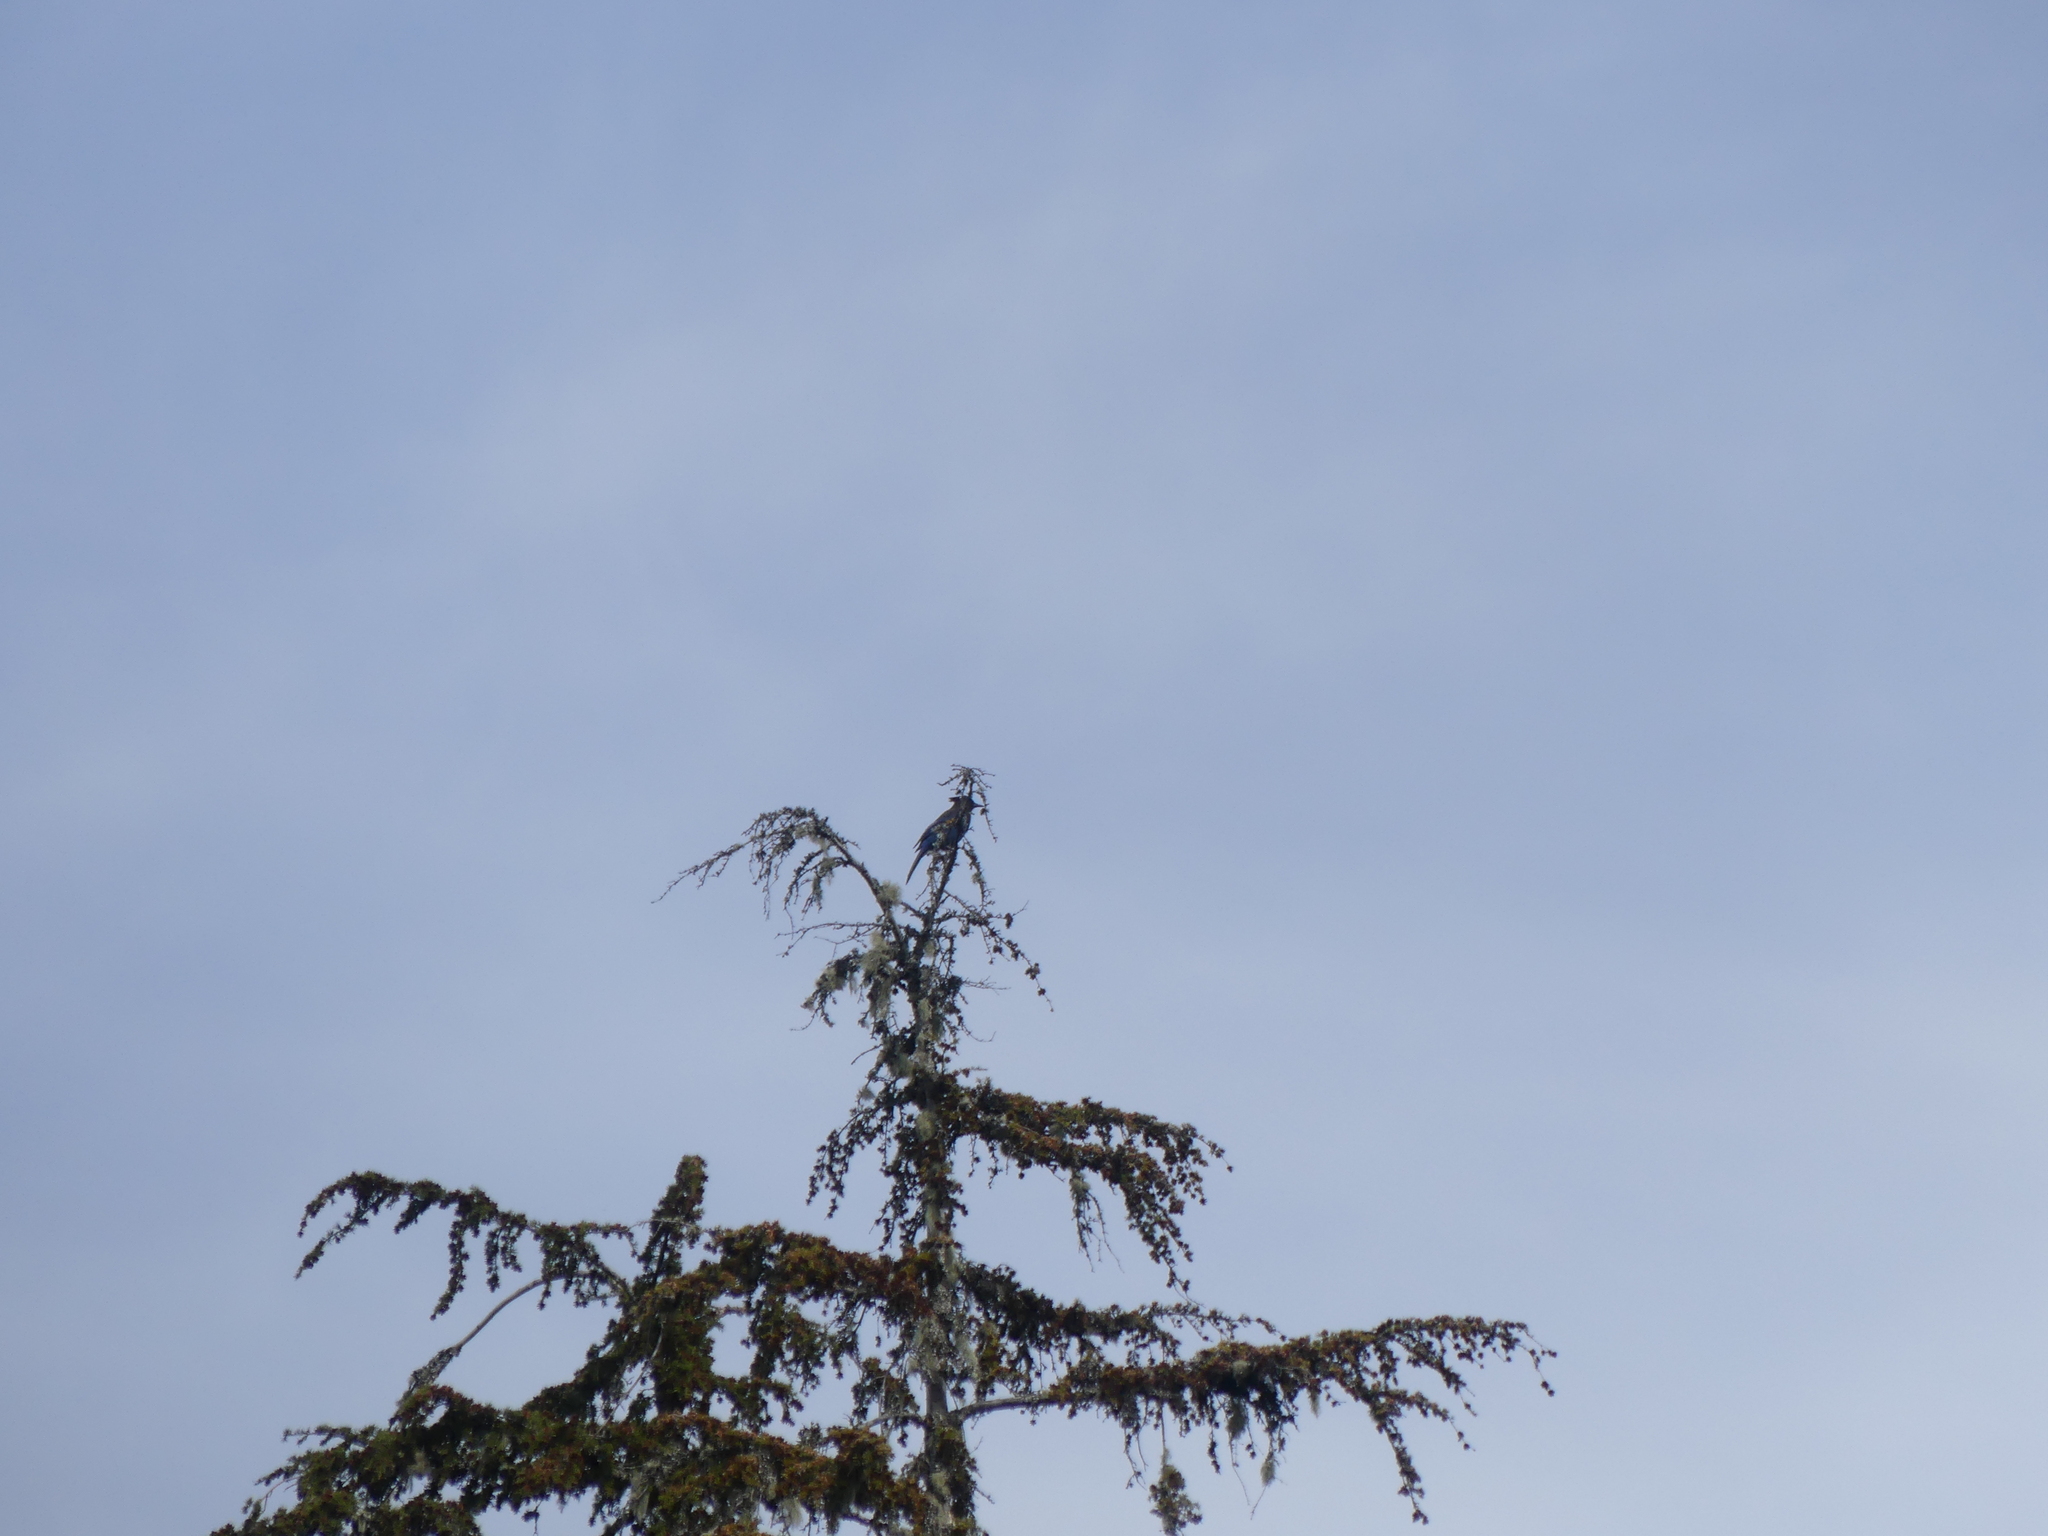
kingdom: Animalia
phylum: Chordata
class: Aves
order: Passeriformes
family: Corvidae
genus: Cyanocitta
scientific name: Cyanocitta stelleri
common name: Steller's jay
